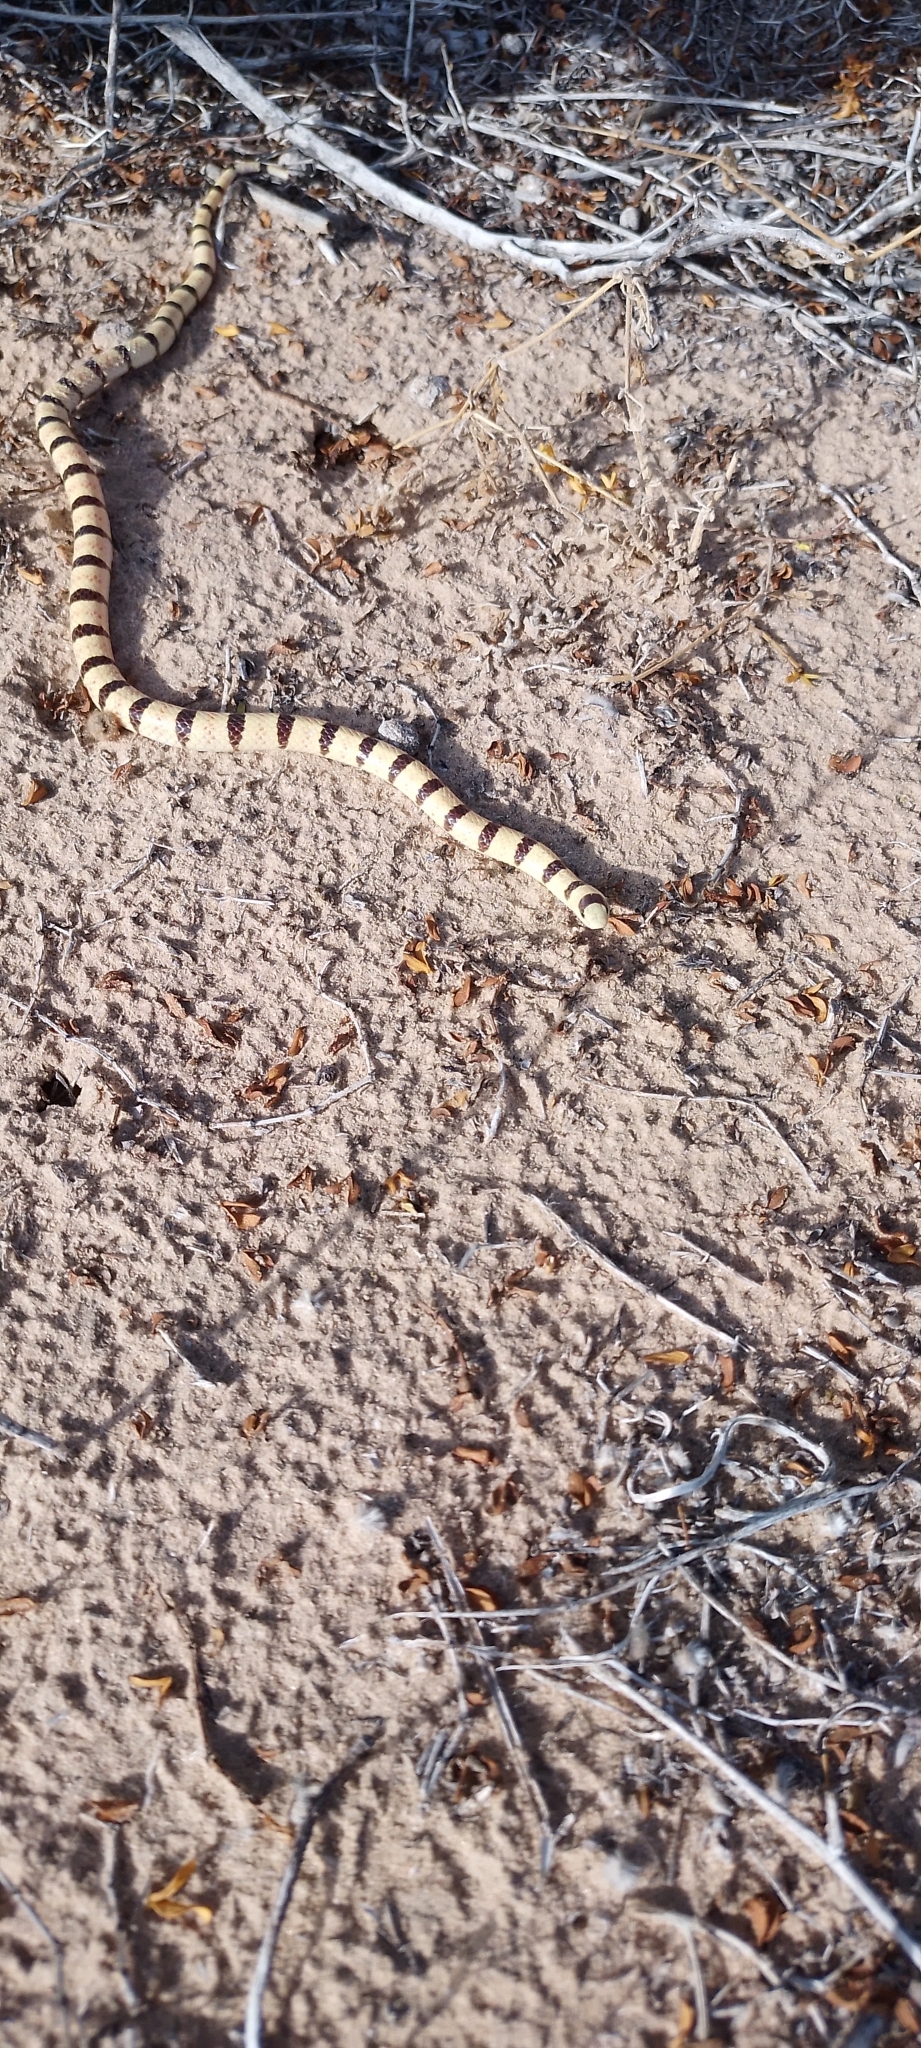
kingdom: Animalia
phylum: Chordata
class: Squamata
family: Colubridae
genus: Sonora
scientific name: Sonora annulata
